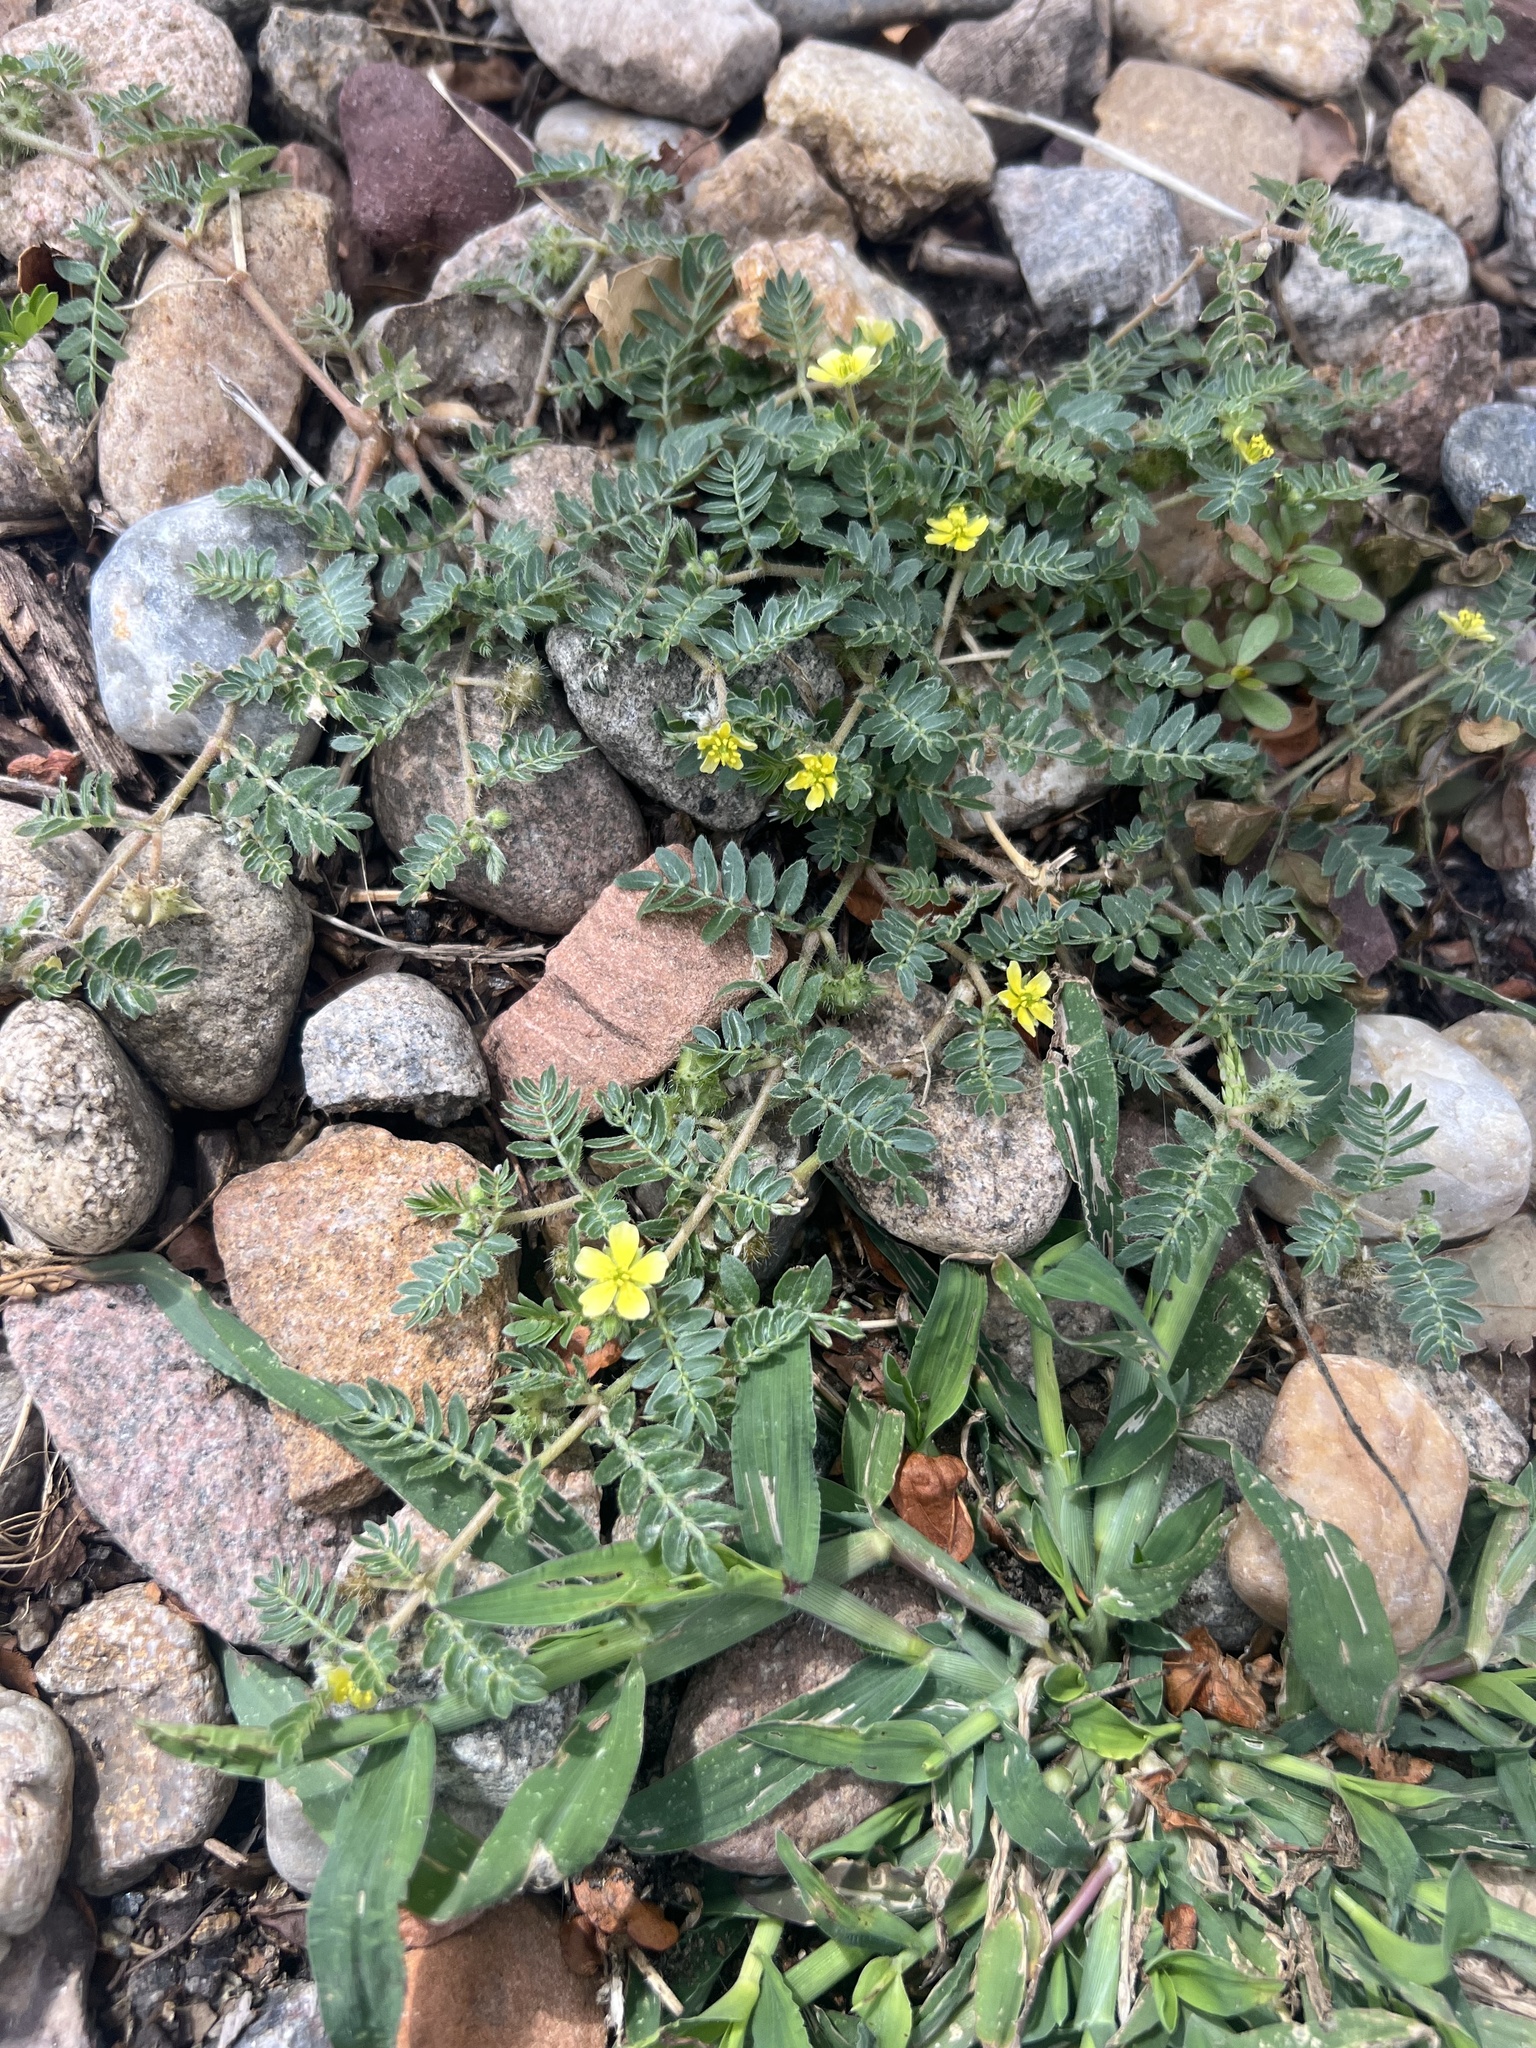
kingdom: Plantae
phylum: Tracheophyta
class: Magnoliopsida
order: Zygophyllales
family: Zygophyllaceae
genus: Tribulus
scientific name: Tribulus terrestris
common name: Puncturevine
